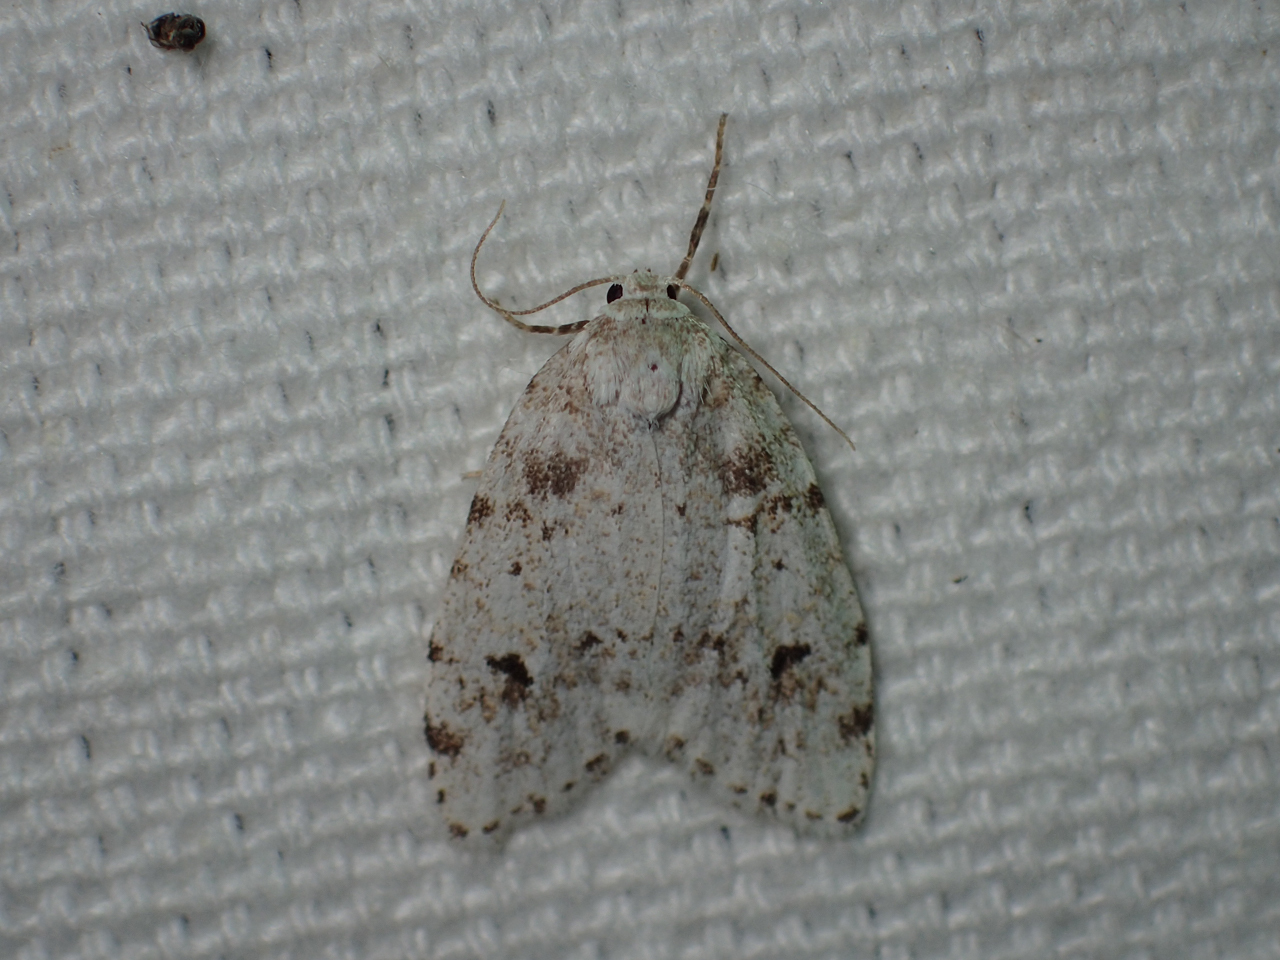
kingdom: Animalia
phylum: Arthropoda
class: Insecta
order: Lepidoptera
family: Erebidae
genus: Clemensia
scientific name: Clemensia ochreata
